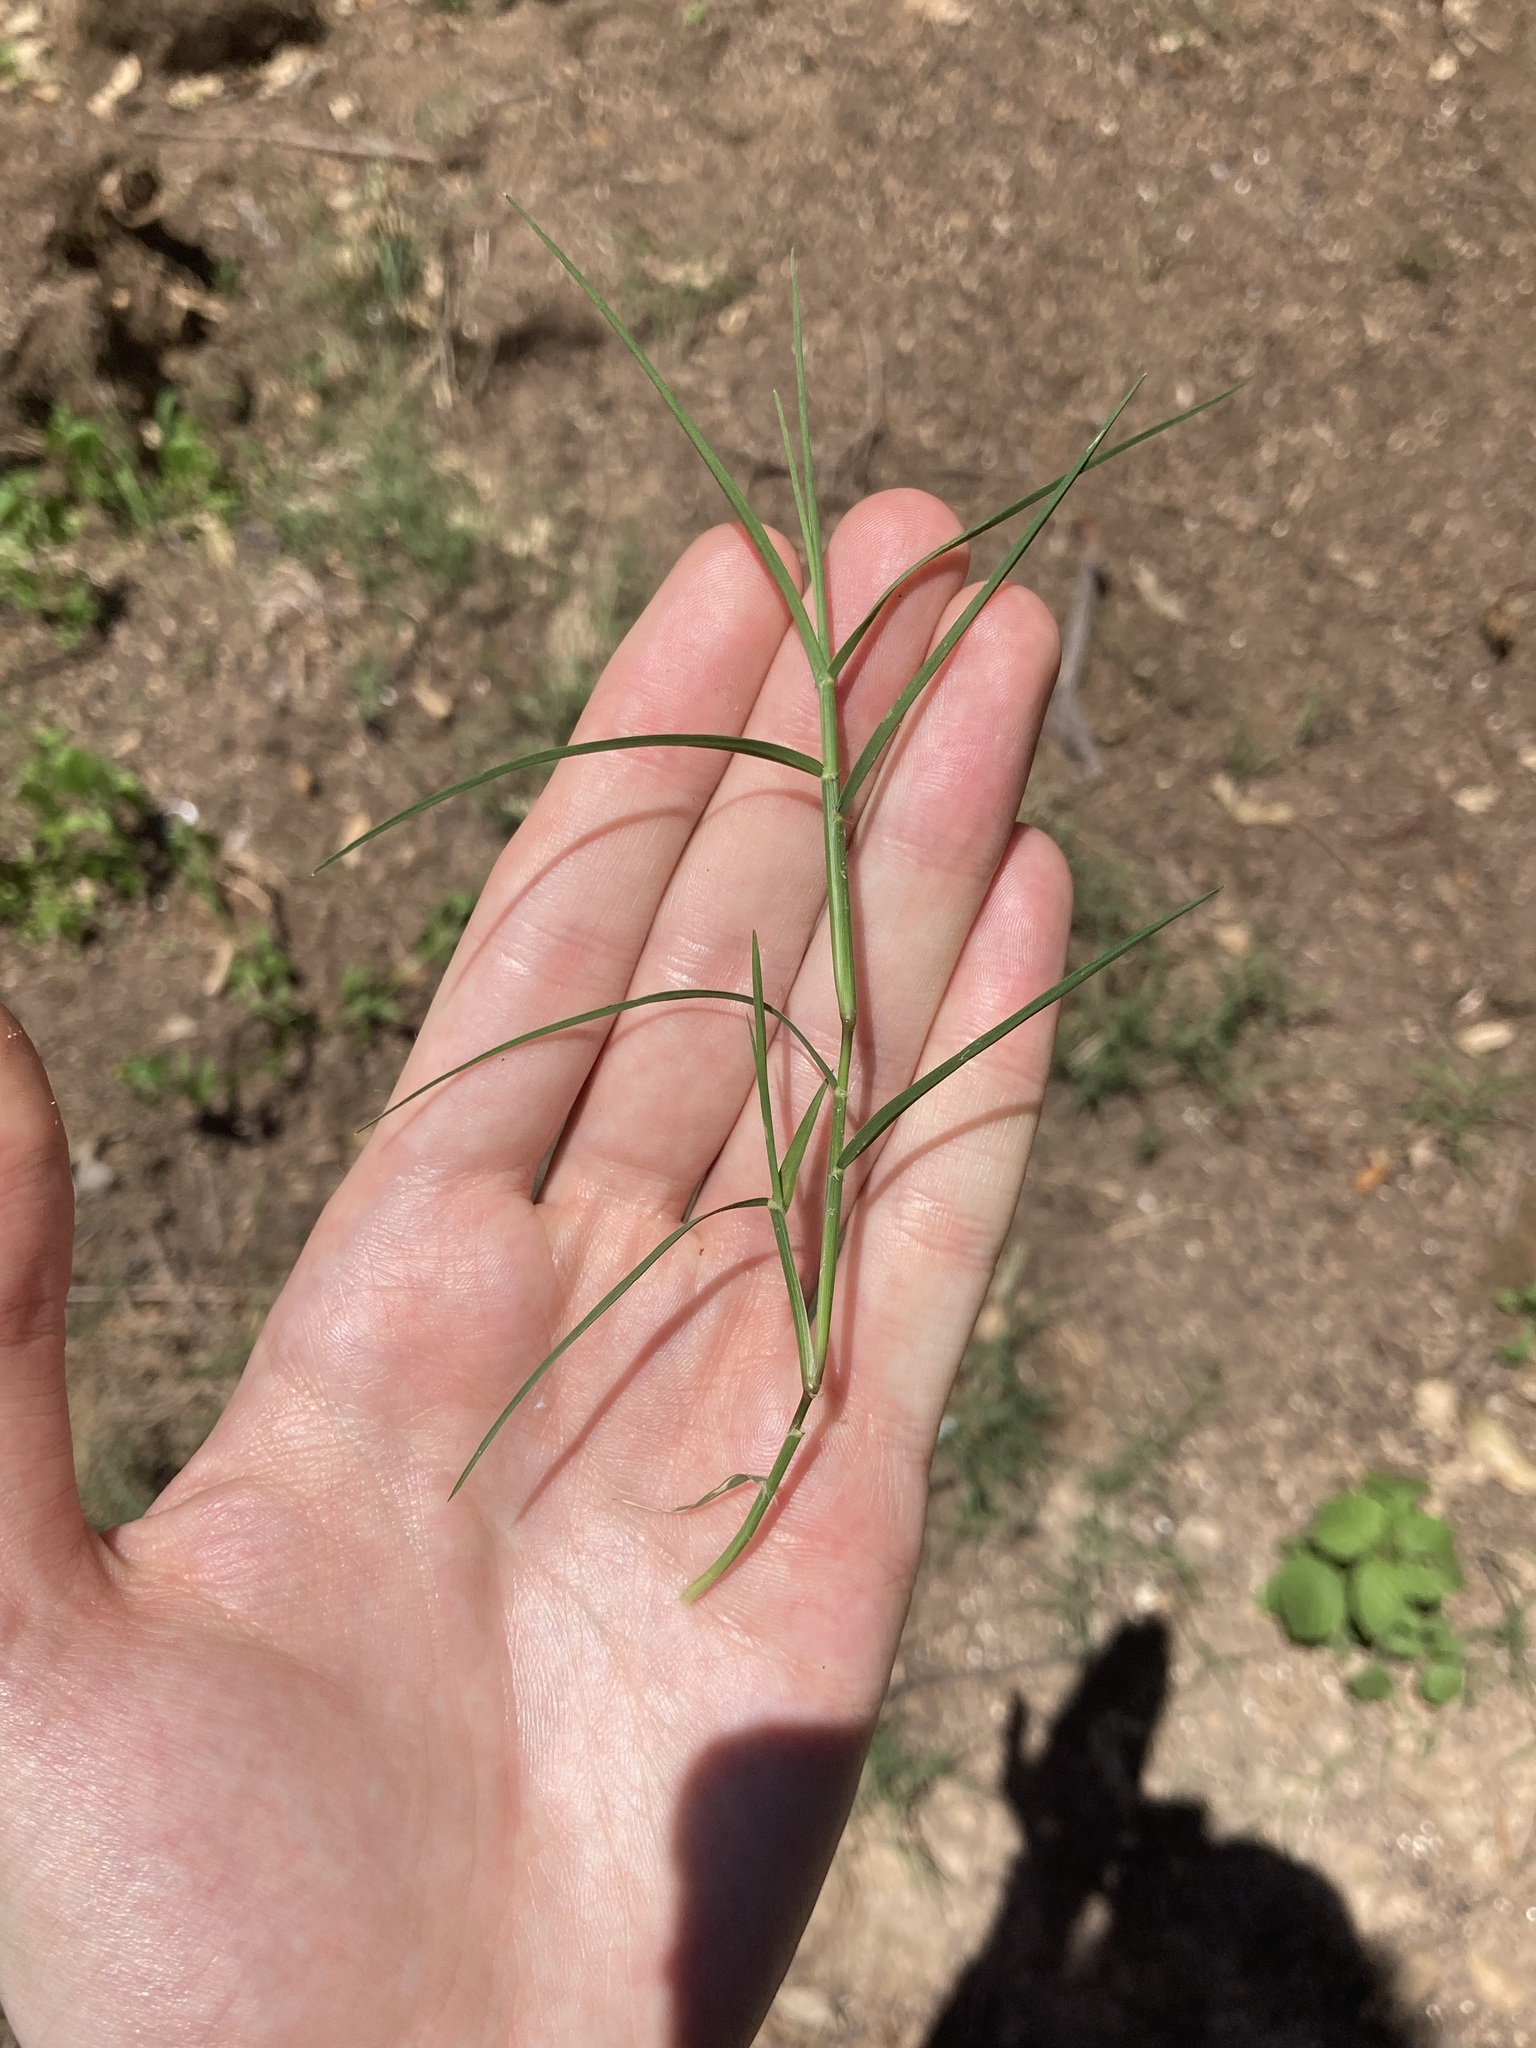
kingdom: Plantae
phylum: Tracheophyta
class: Liliopsida
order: Poales
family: Poaceae
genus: Cynodon
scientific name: Cynodon dactylon
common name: Bermuda grass
